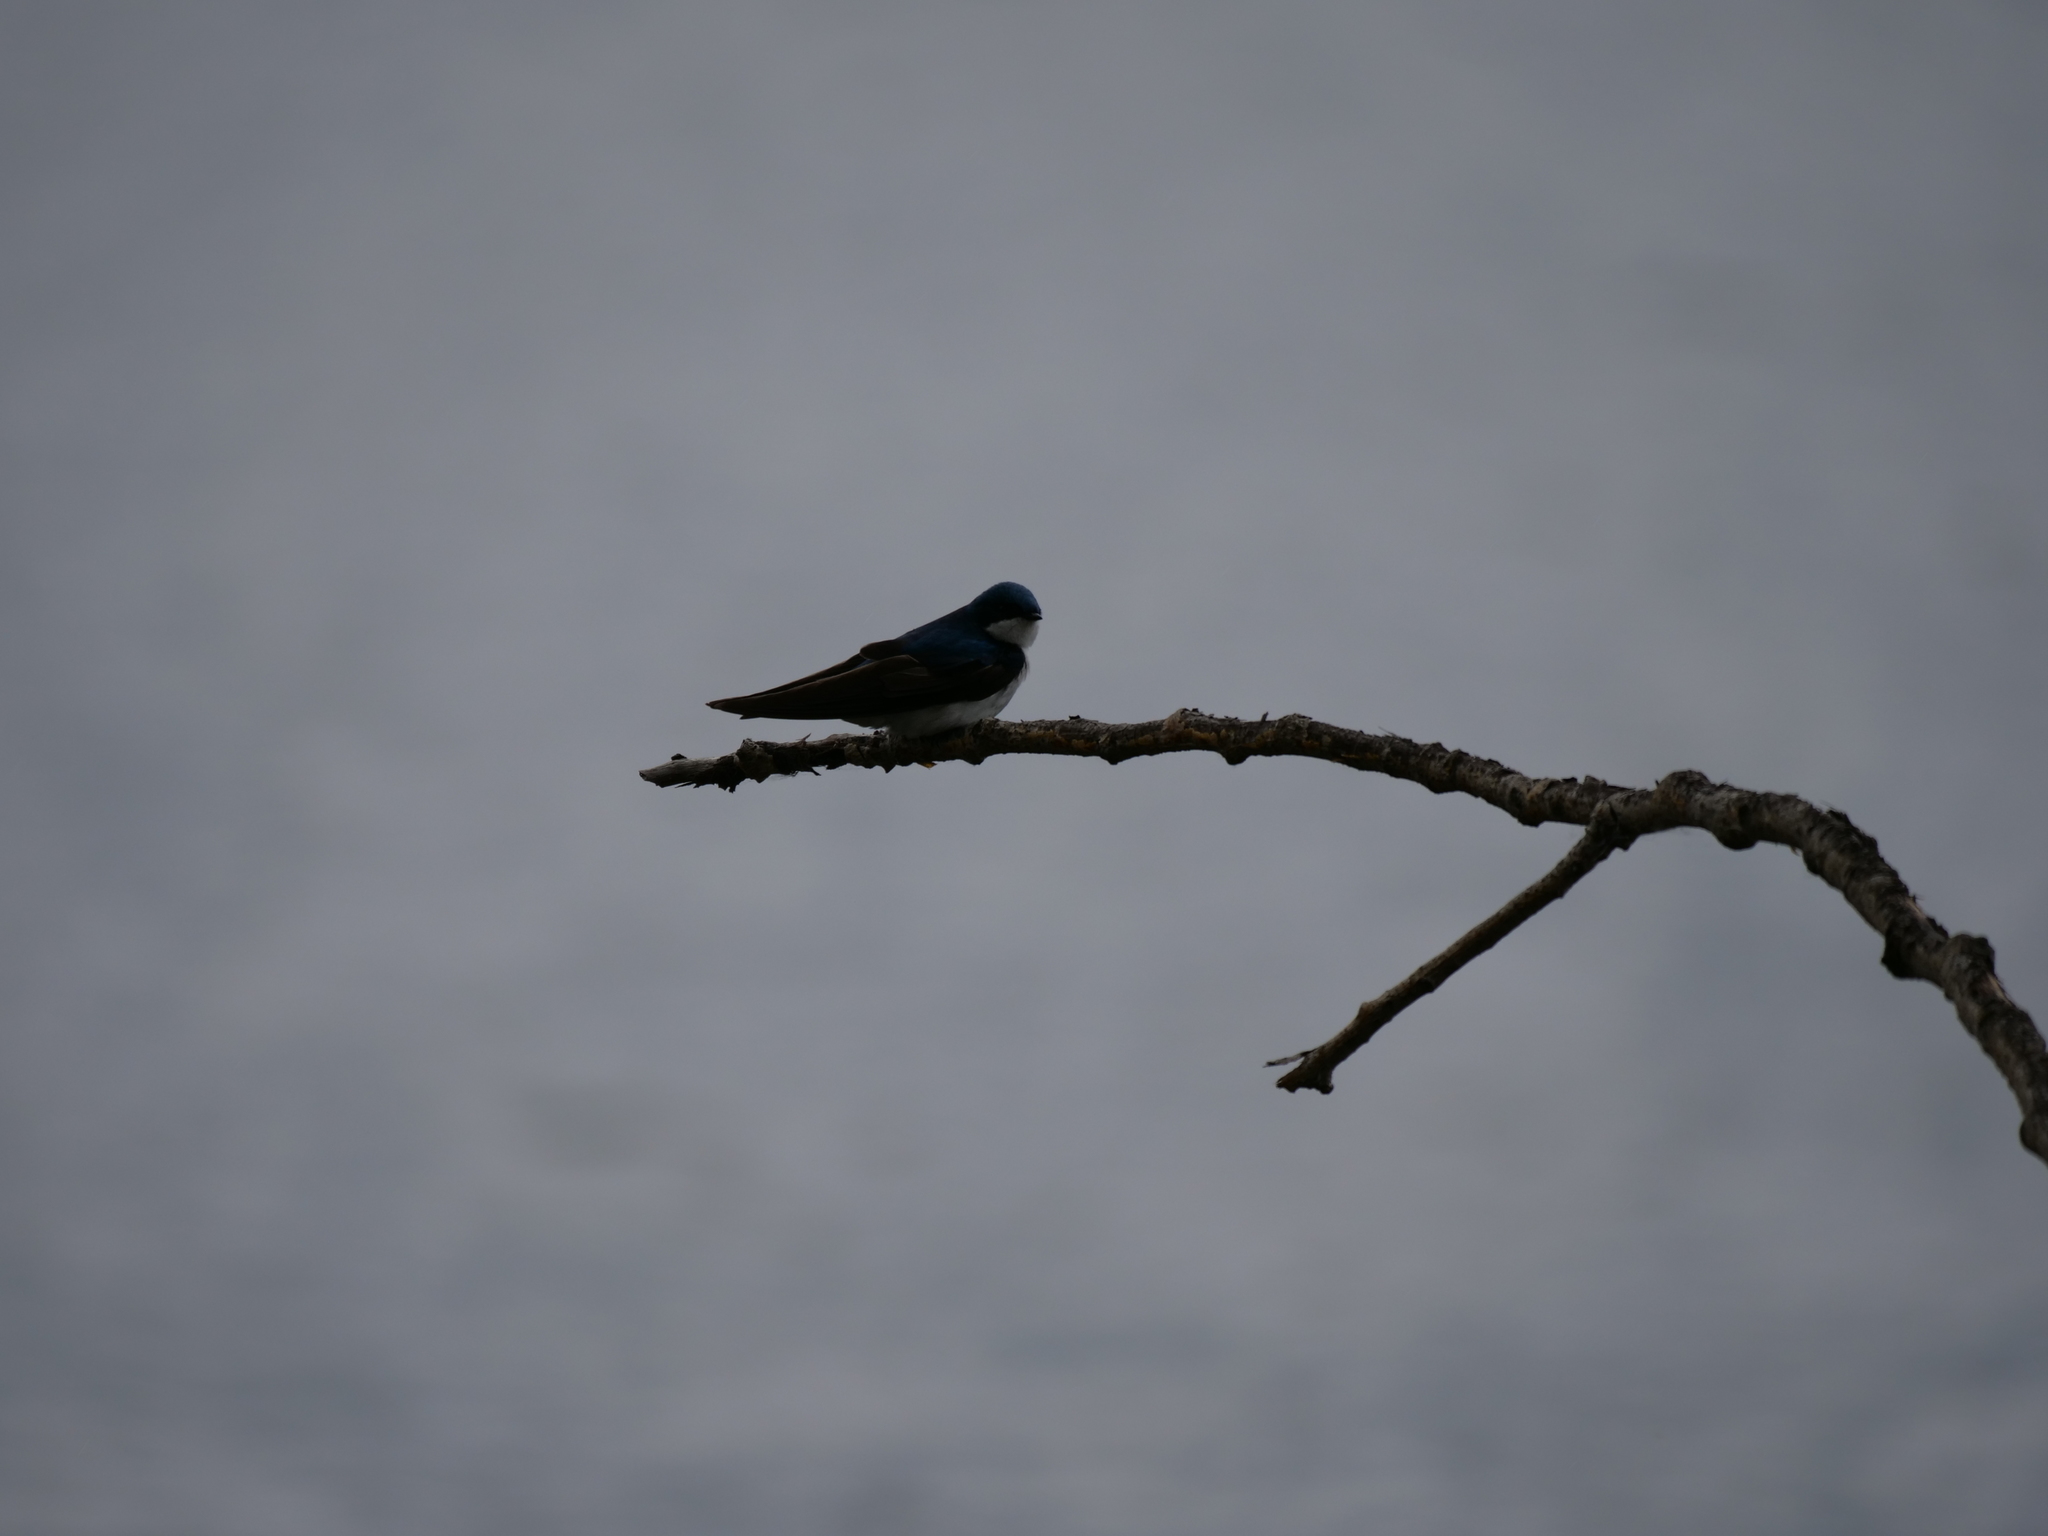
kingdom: Animalia
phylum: Chordata
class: Aves
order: Passeriformes
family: Hirundinidae
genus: Tachycineta
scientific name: Tachycineta bicolor
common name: Tree swallow
